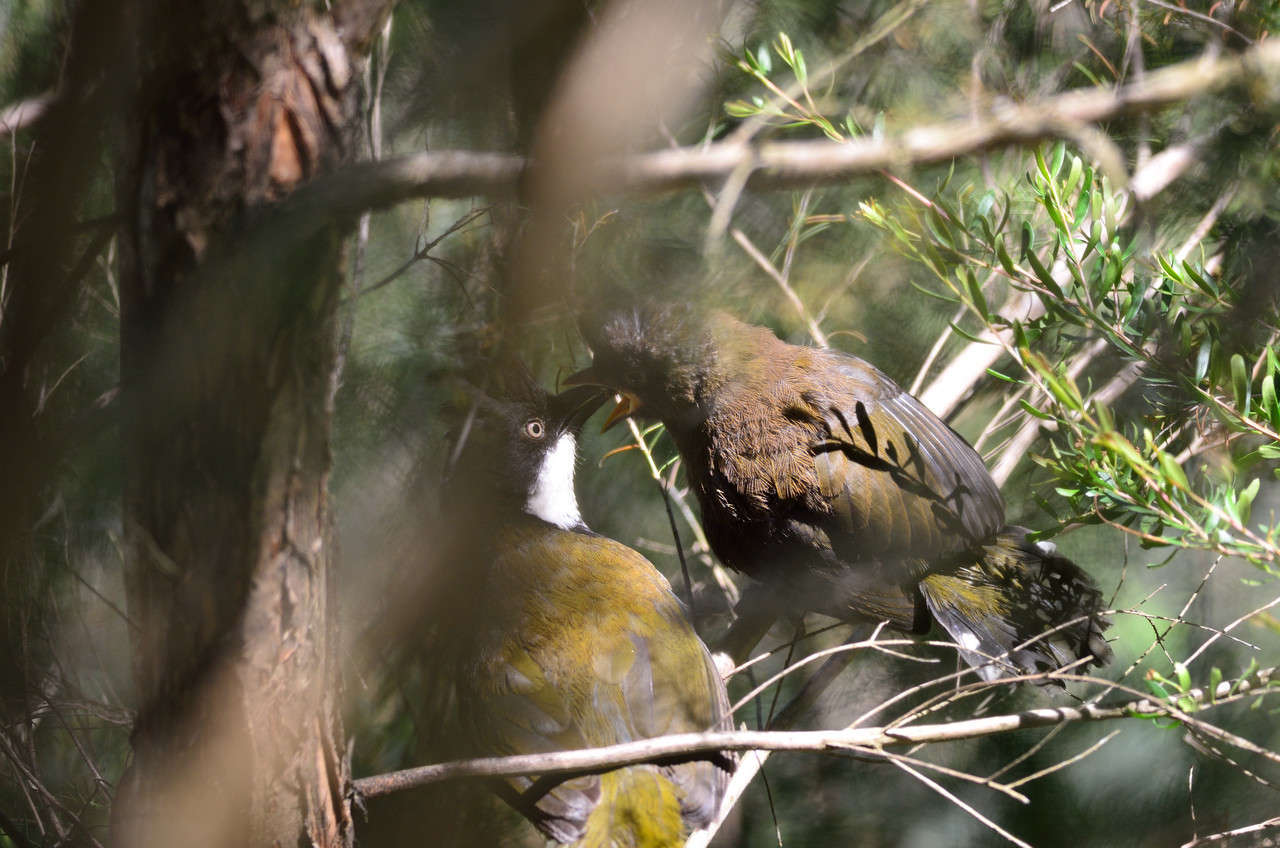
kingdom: Animalia
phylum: Chordata
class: Aves
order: Passeriformes
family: Psophodidae
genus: Psophodes
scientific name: Psophodes olivaceus
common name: Eastern whipbird
